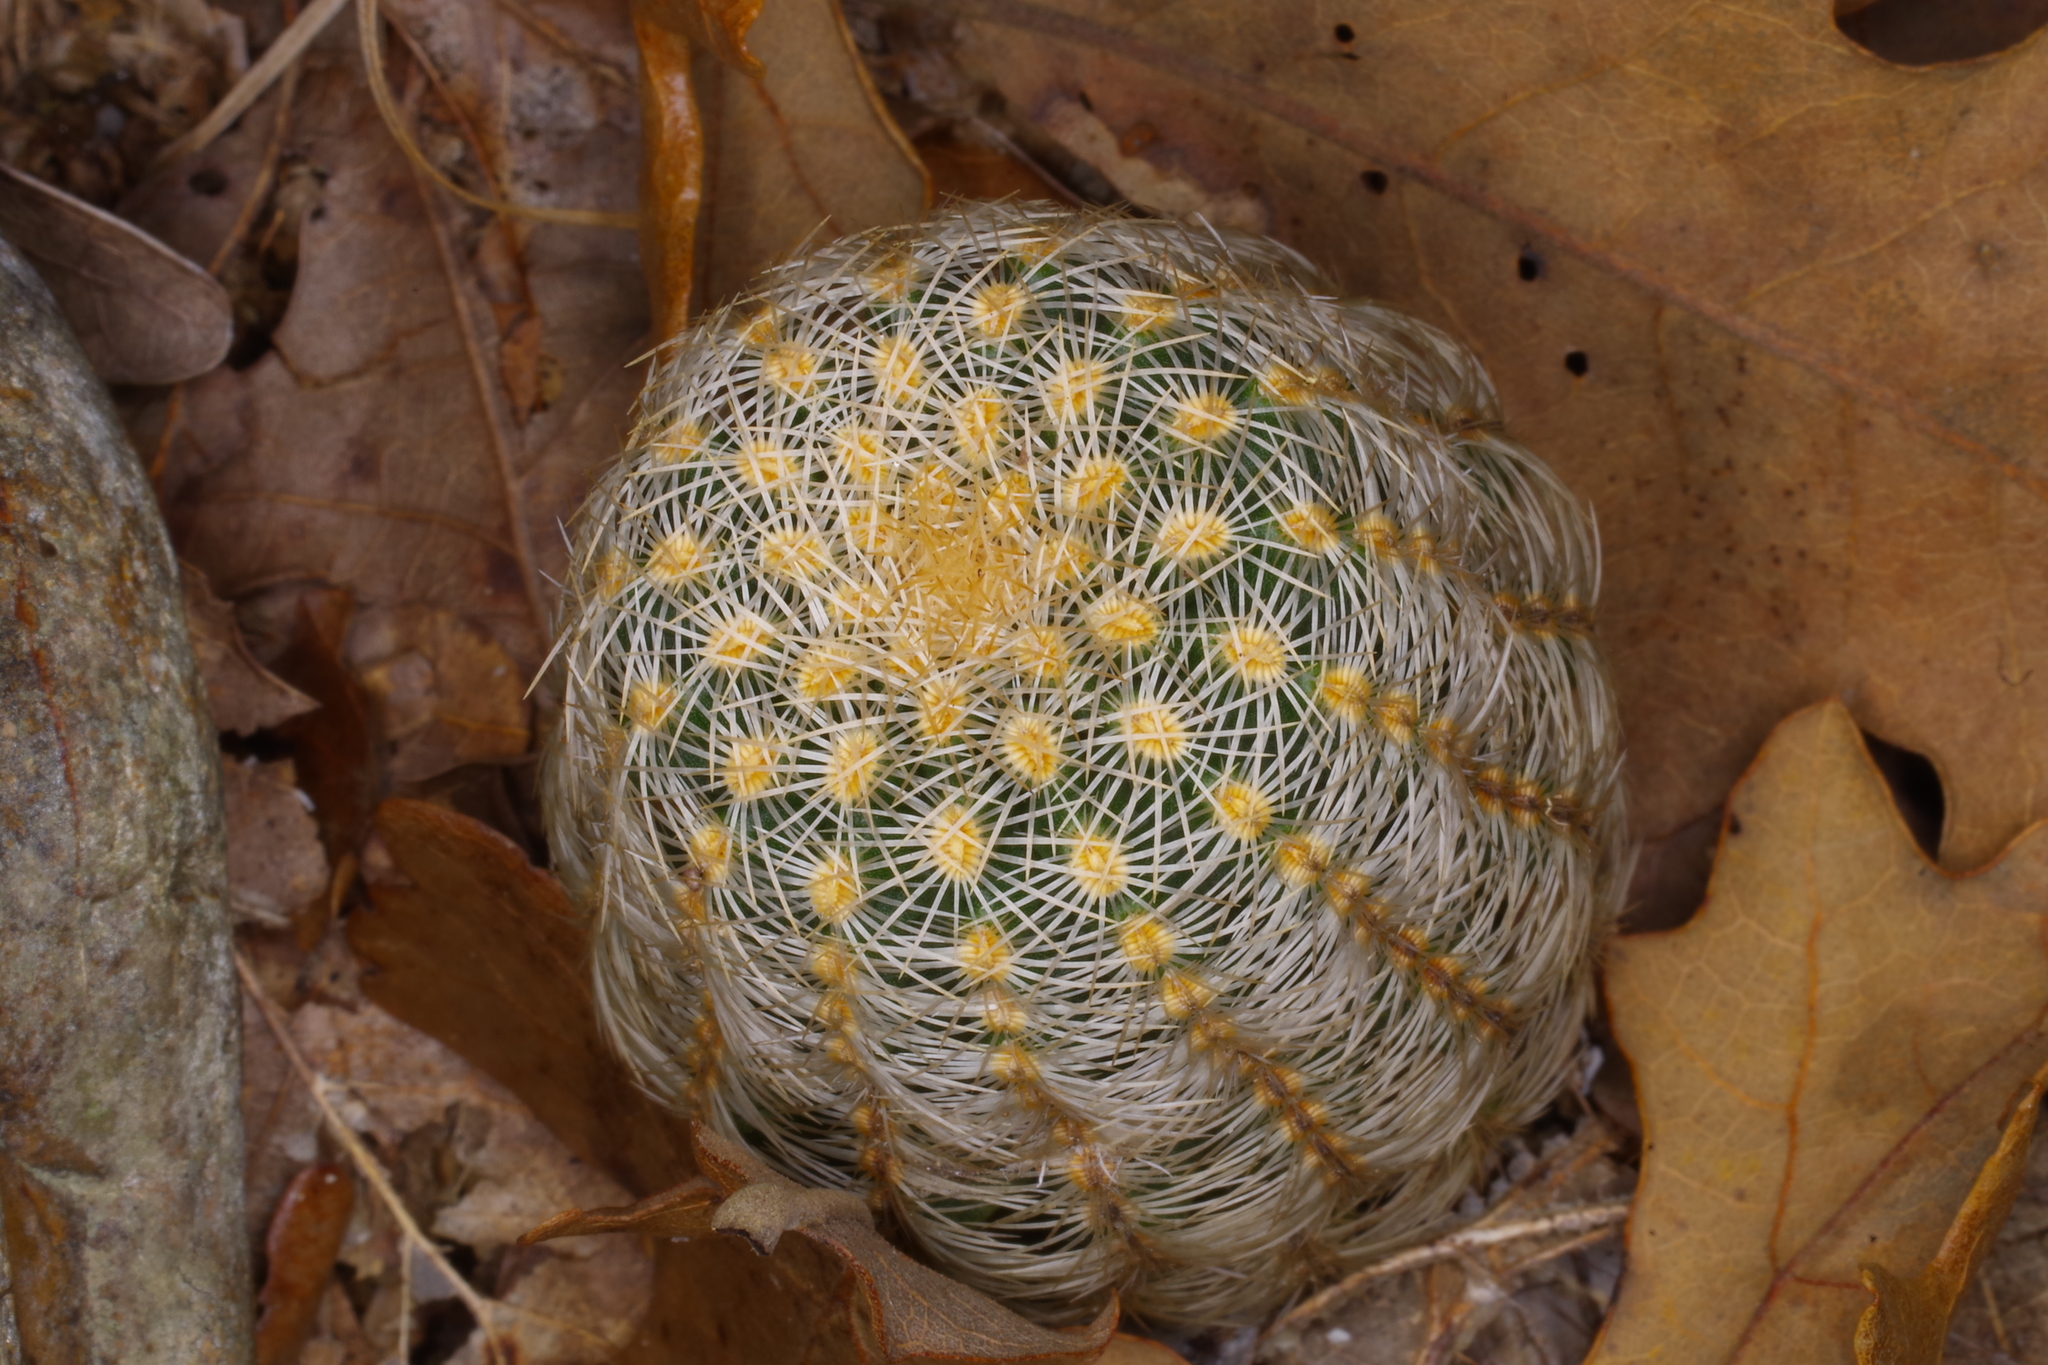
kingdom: Plantae
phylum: Tracheophyta
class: Magnoliopsida
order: Caryophyllales
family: Cactaceae
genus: Echinocereus
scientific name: Echinocereus reichenbachii
